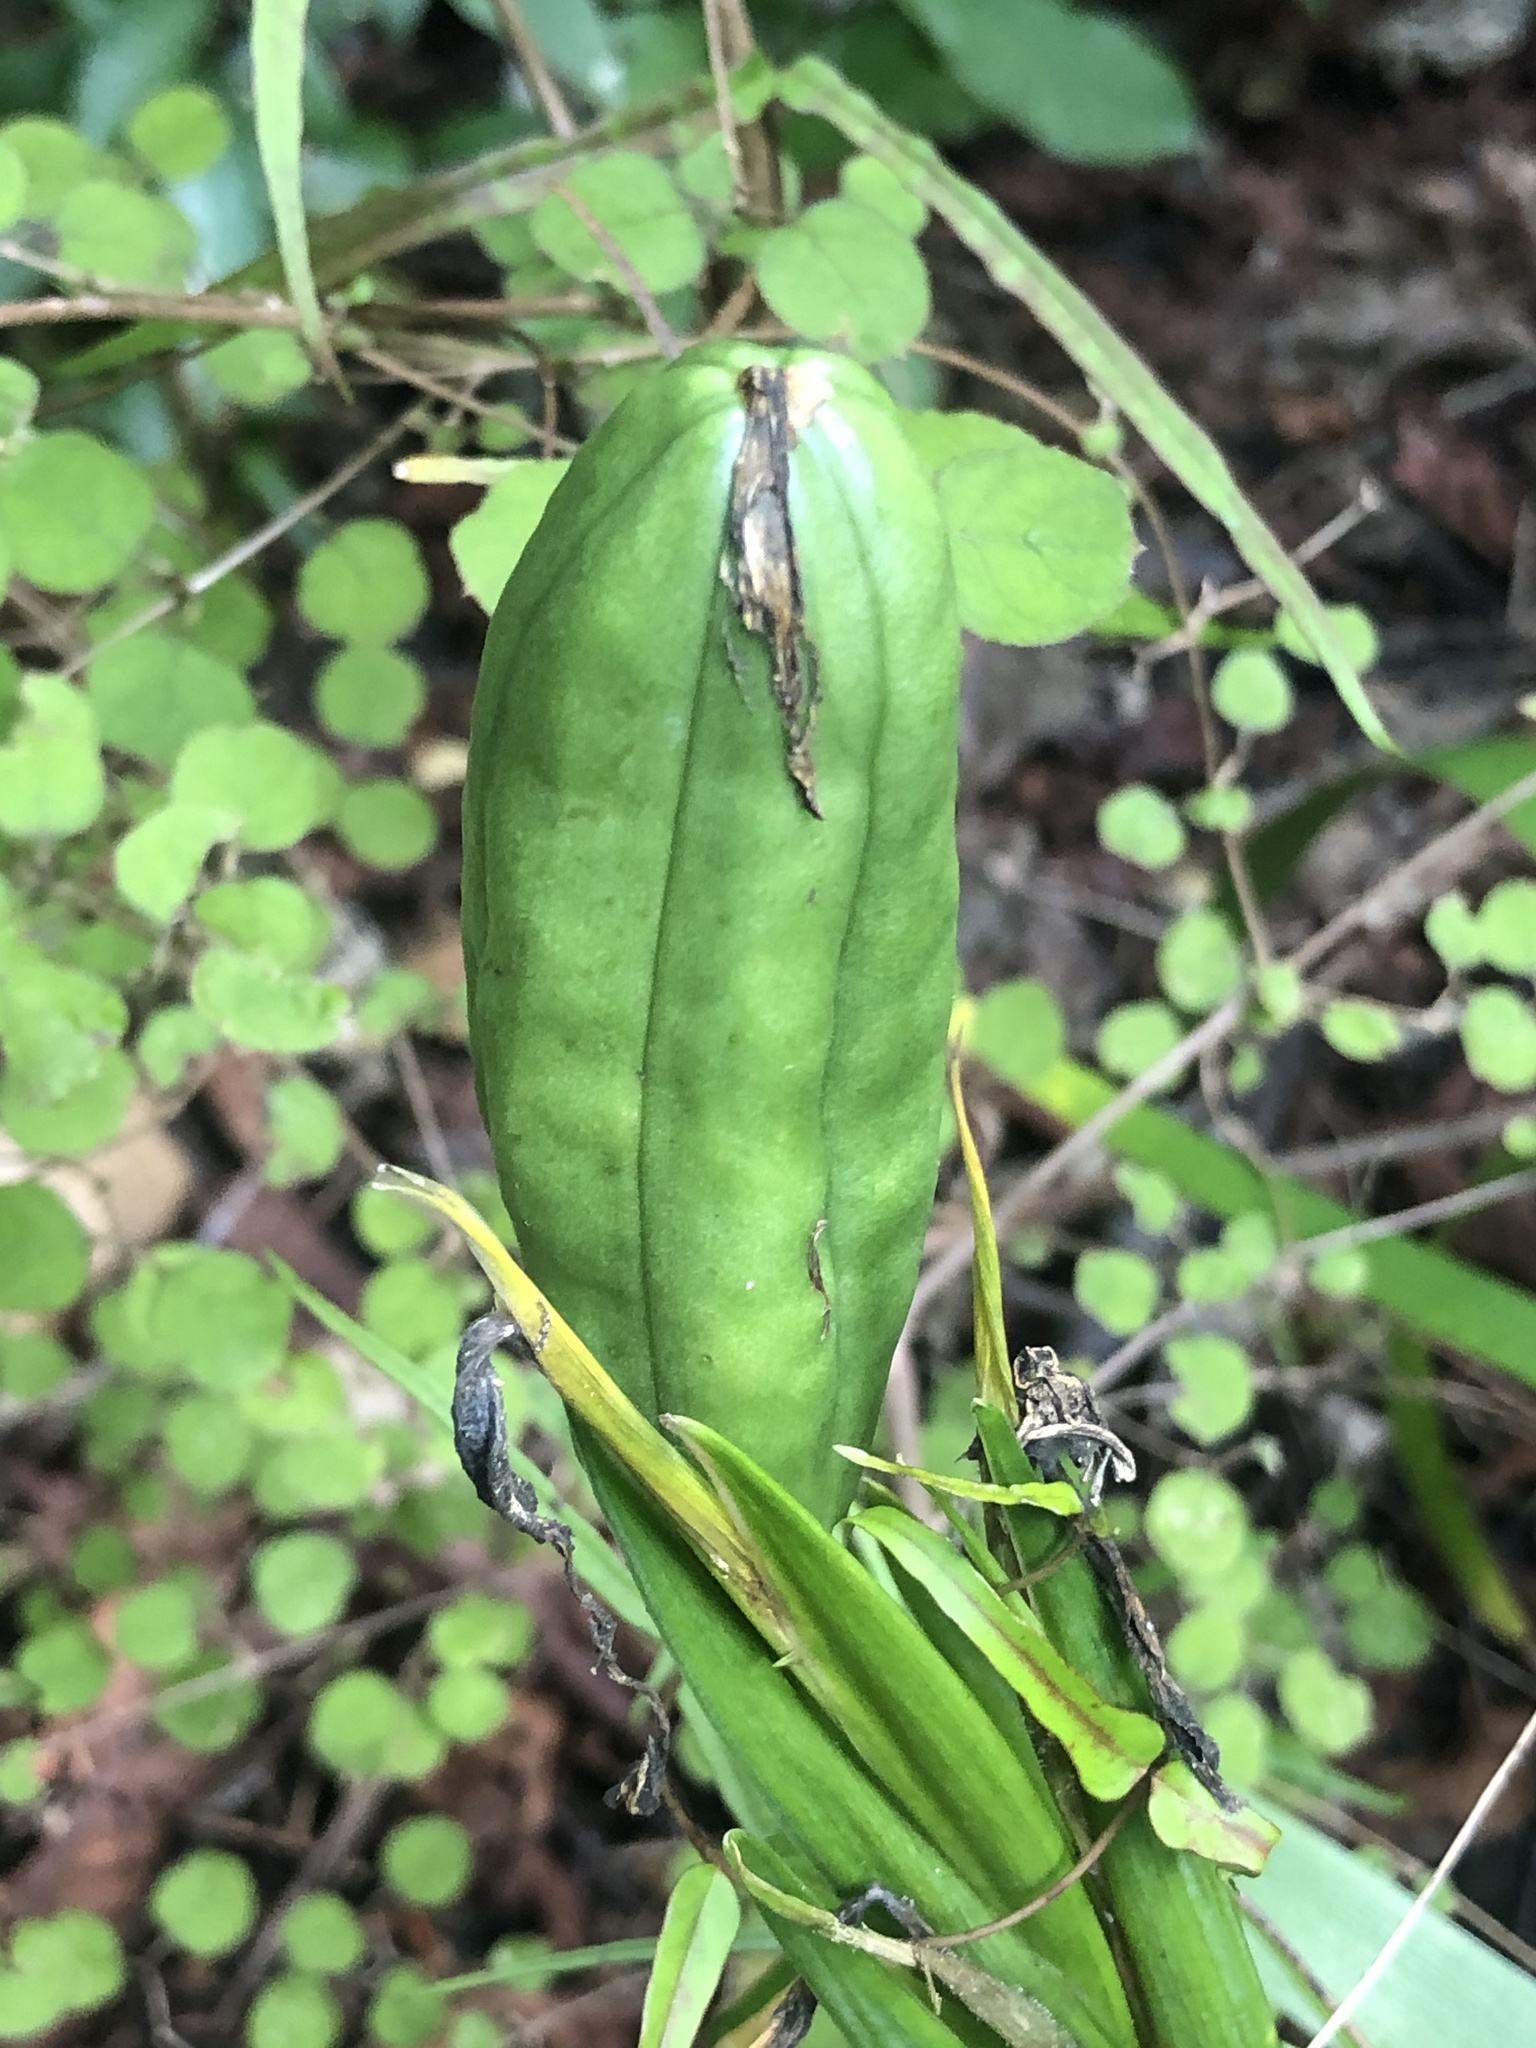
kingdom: Plantae
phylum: Tracheophyta
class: Liliopsida
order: Asparagales
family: Iridaceae
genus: Iris
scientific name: Iris foetidissima
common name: Stinking iris
